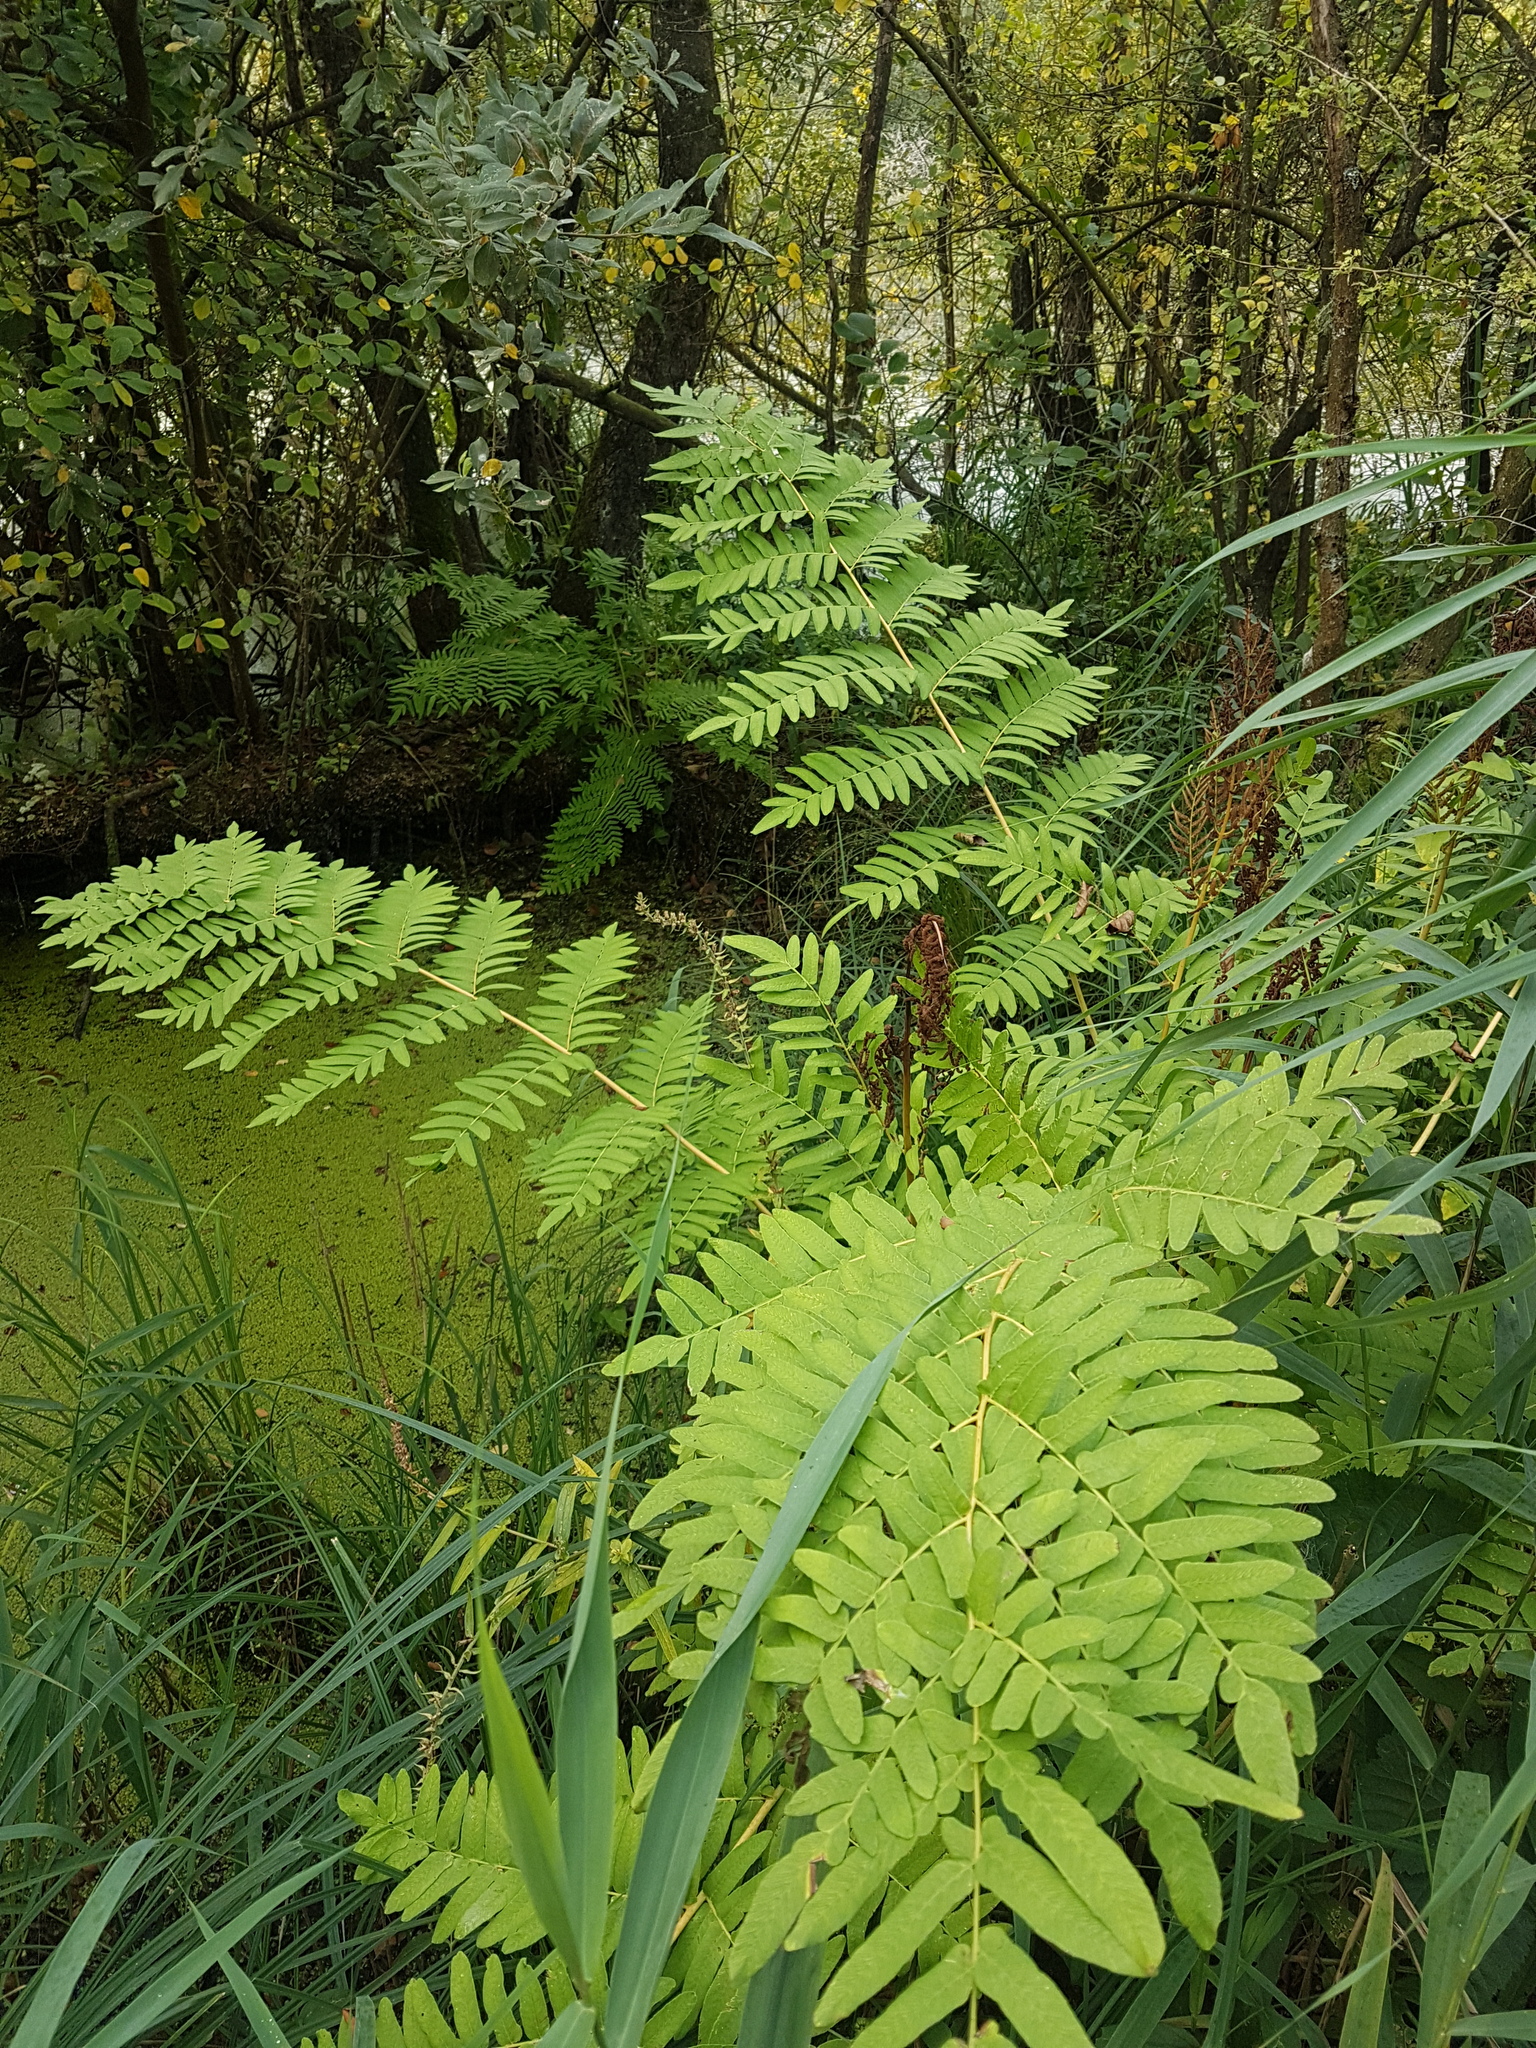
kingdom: Plantae
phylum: Tracheophyta
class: Polypodiopsida
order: Osmundales
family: Osmundaceae
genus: Osmunda
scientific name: Osmunda regalis
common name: Royal fern
